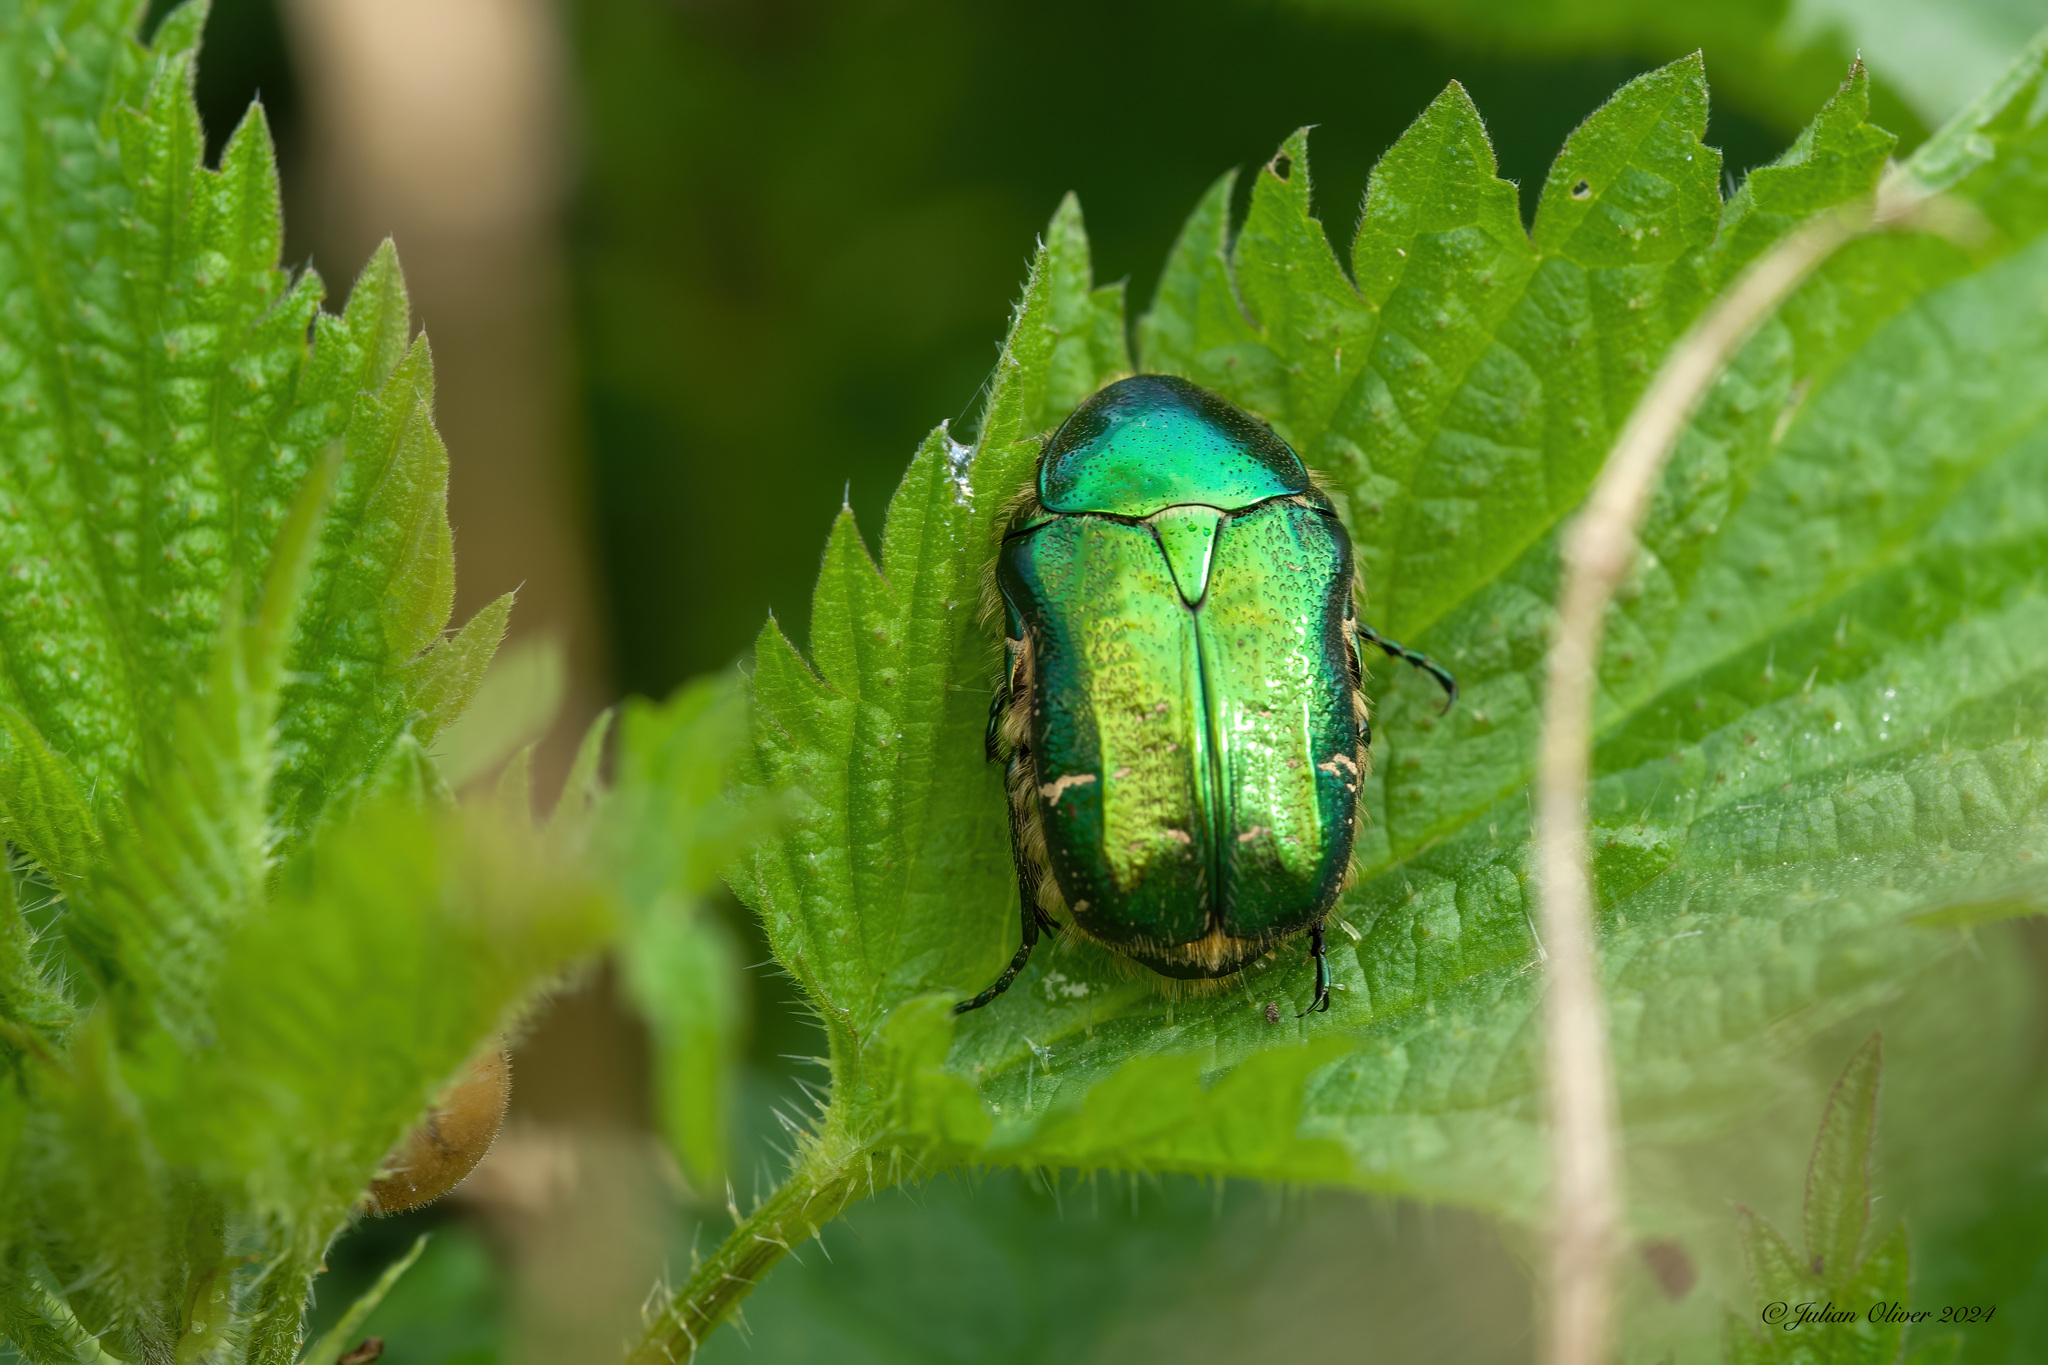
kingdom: Animalia
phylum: Arthropoda
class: Insecta
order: Coleoptera
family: Scarabaeidae
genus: Cetonia
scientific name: Cetonia aurata
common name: Rose chafer
